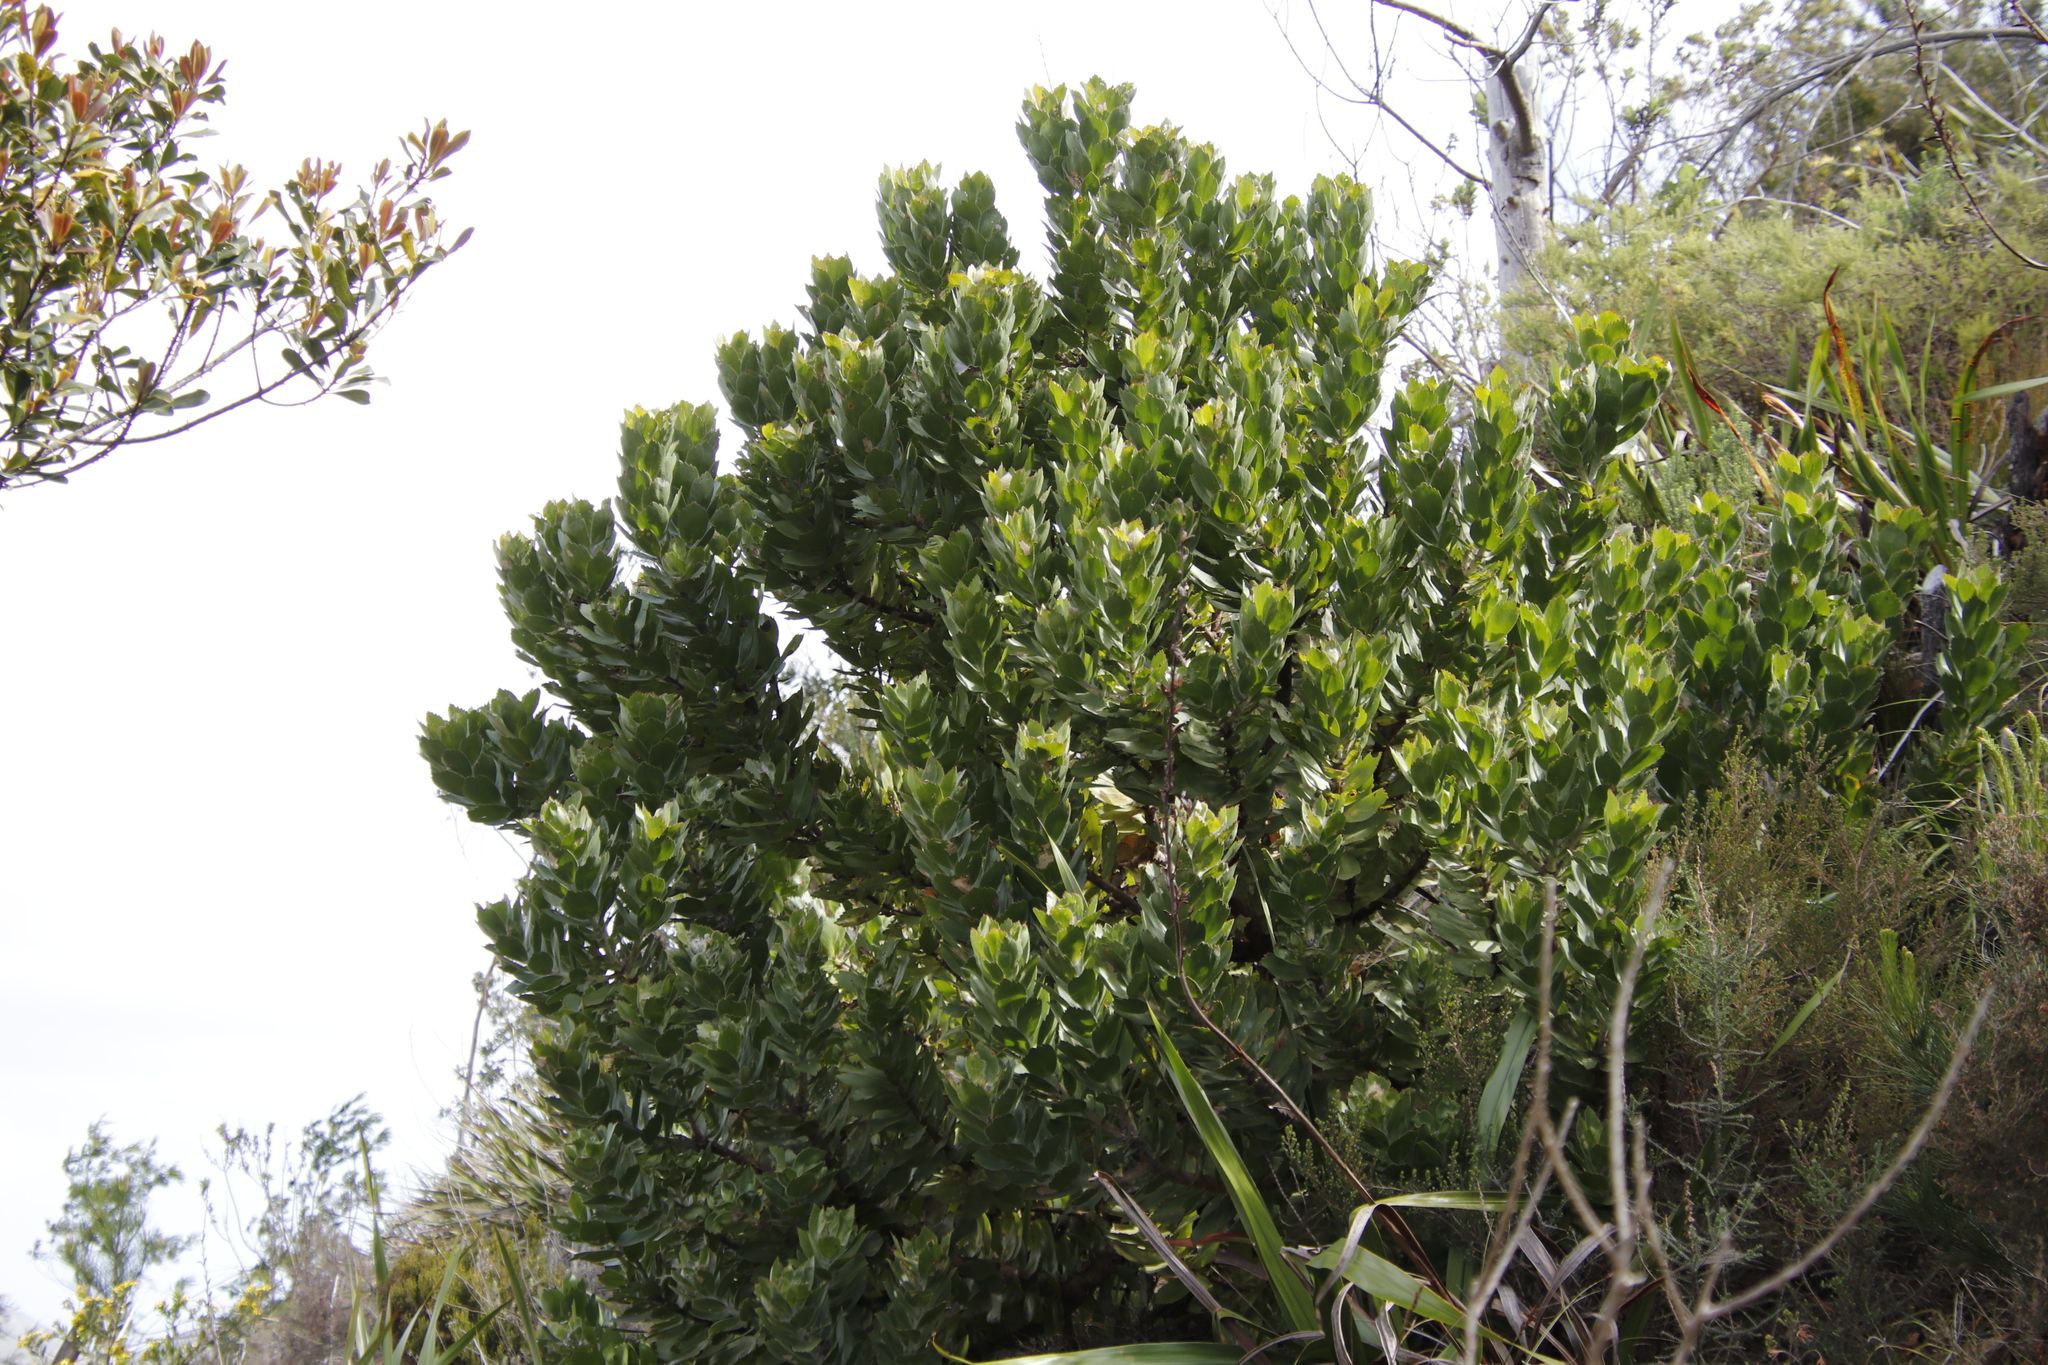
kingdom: Plantae
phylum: Tracheophyta
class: Magnoliopsida
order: Proteales
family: Proteaceae
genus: Leucospermum
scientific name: Leucospermum conocarpodendron
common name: Tree pincushion
